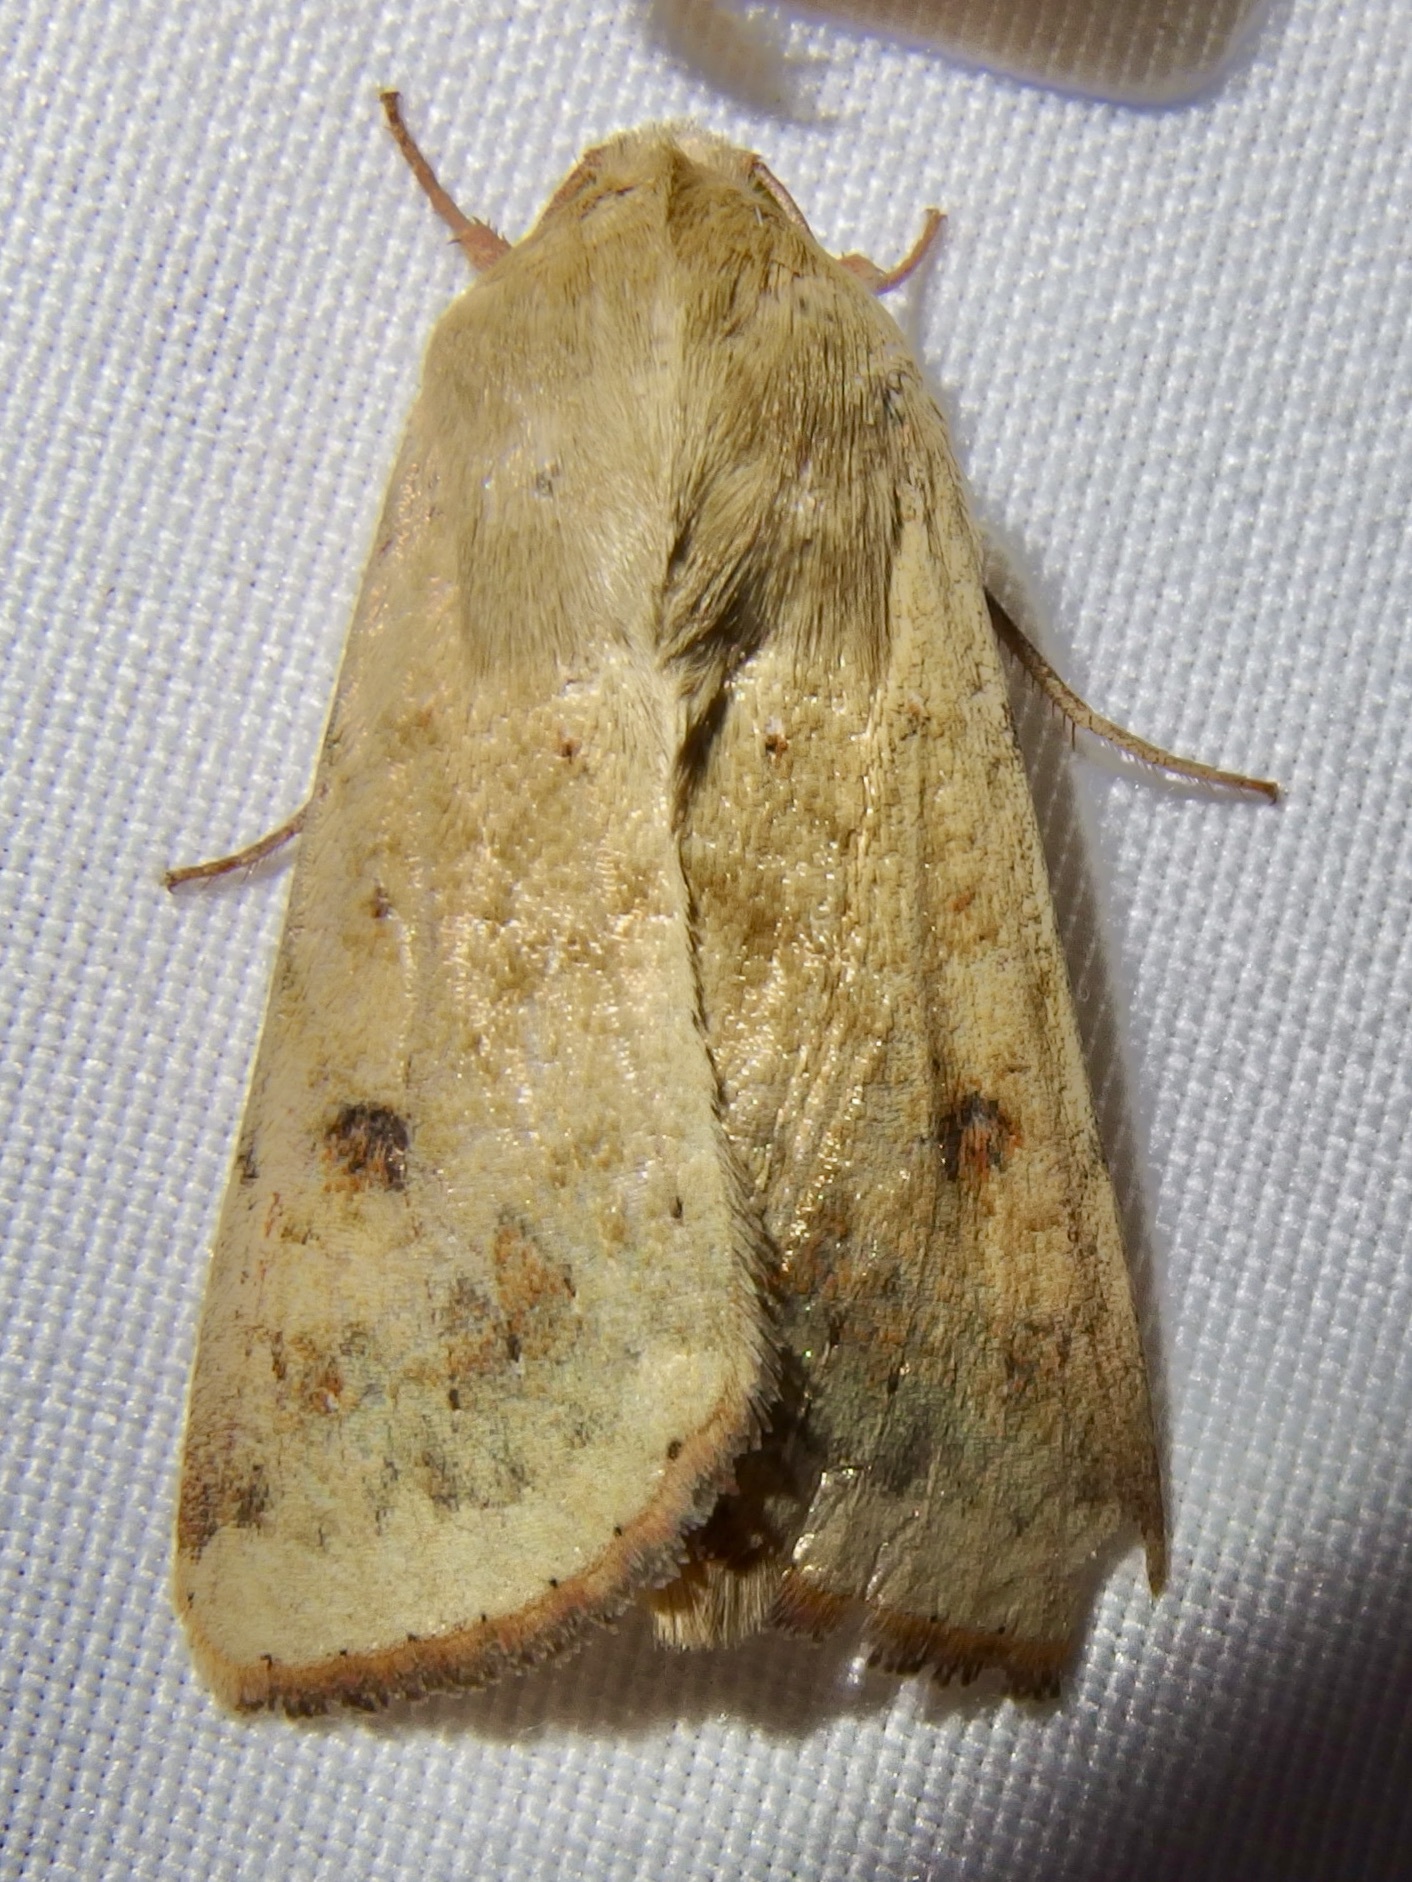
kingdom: Animalia
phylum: Arthropoda
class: Insecta
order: Lepidoptera
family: Noctuidae
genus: Helicoverpa
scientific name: Helicoverpa zea
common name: Bollworm
